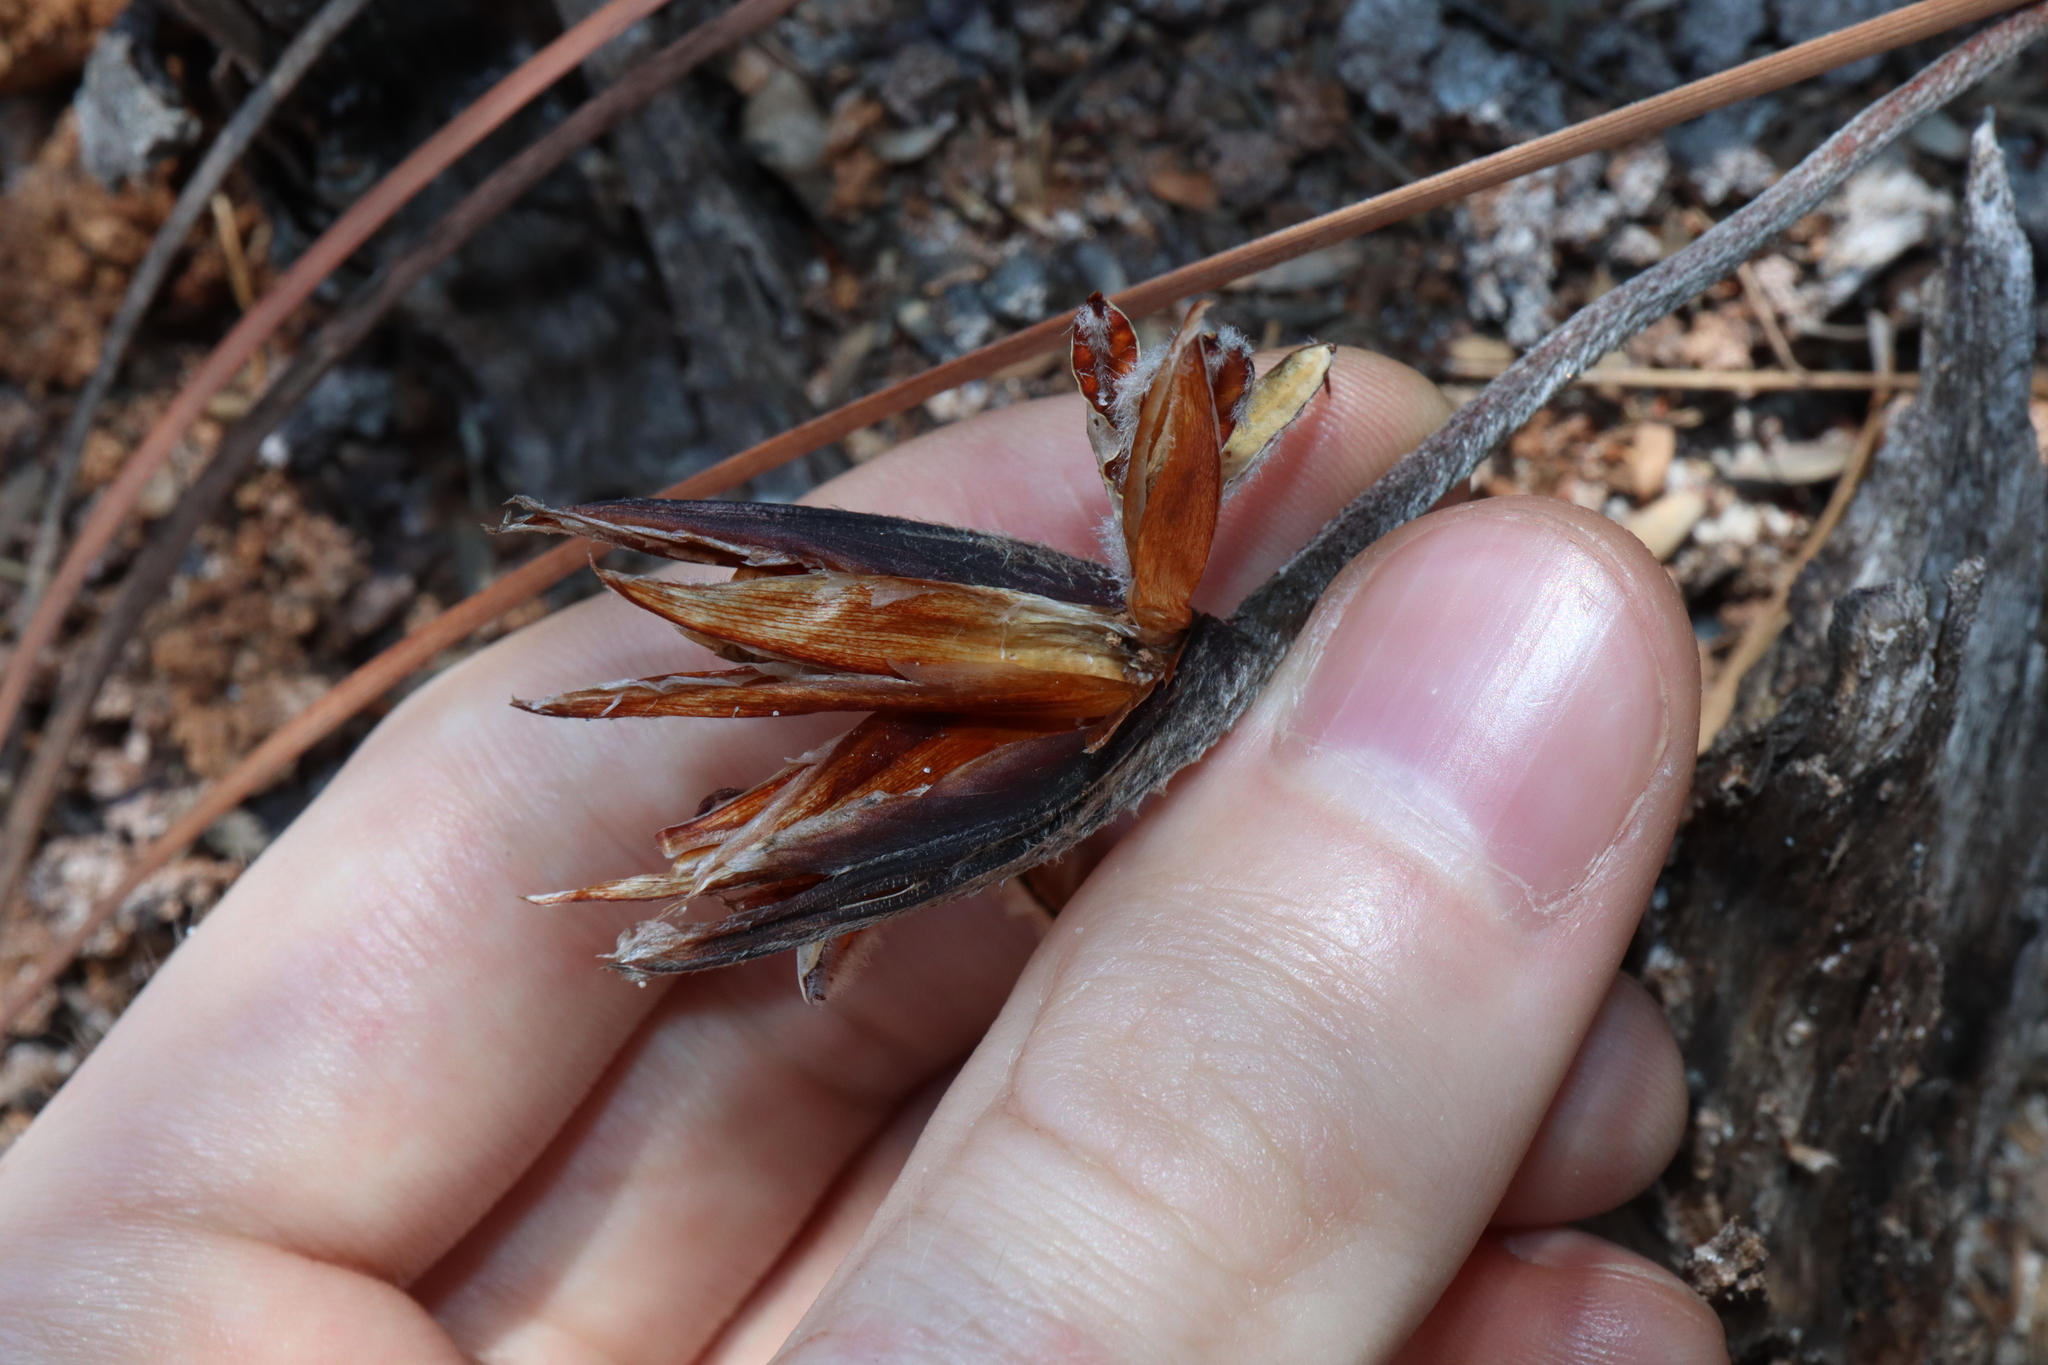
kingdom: Plantae
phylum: Tracheophyta
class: Liliopsida
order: Asparagales
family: Iridaceae
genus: Patersonia
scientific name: Patersonia sericea
